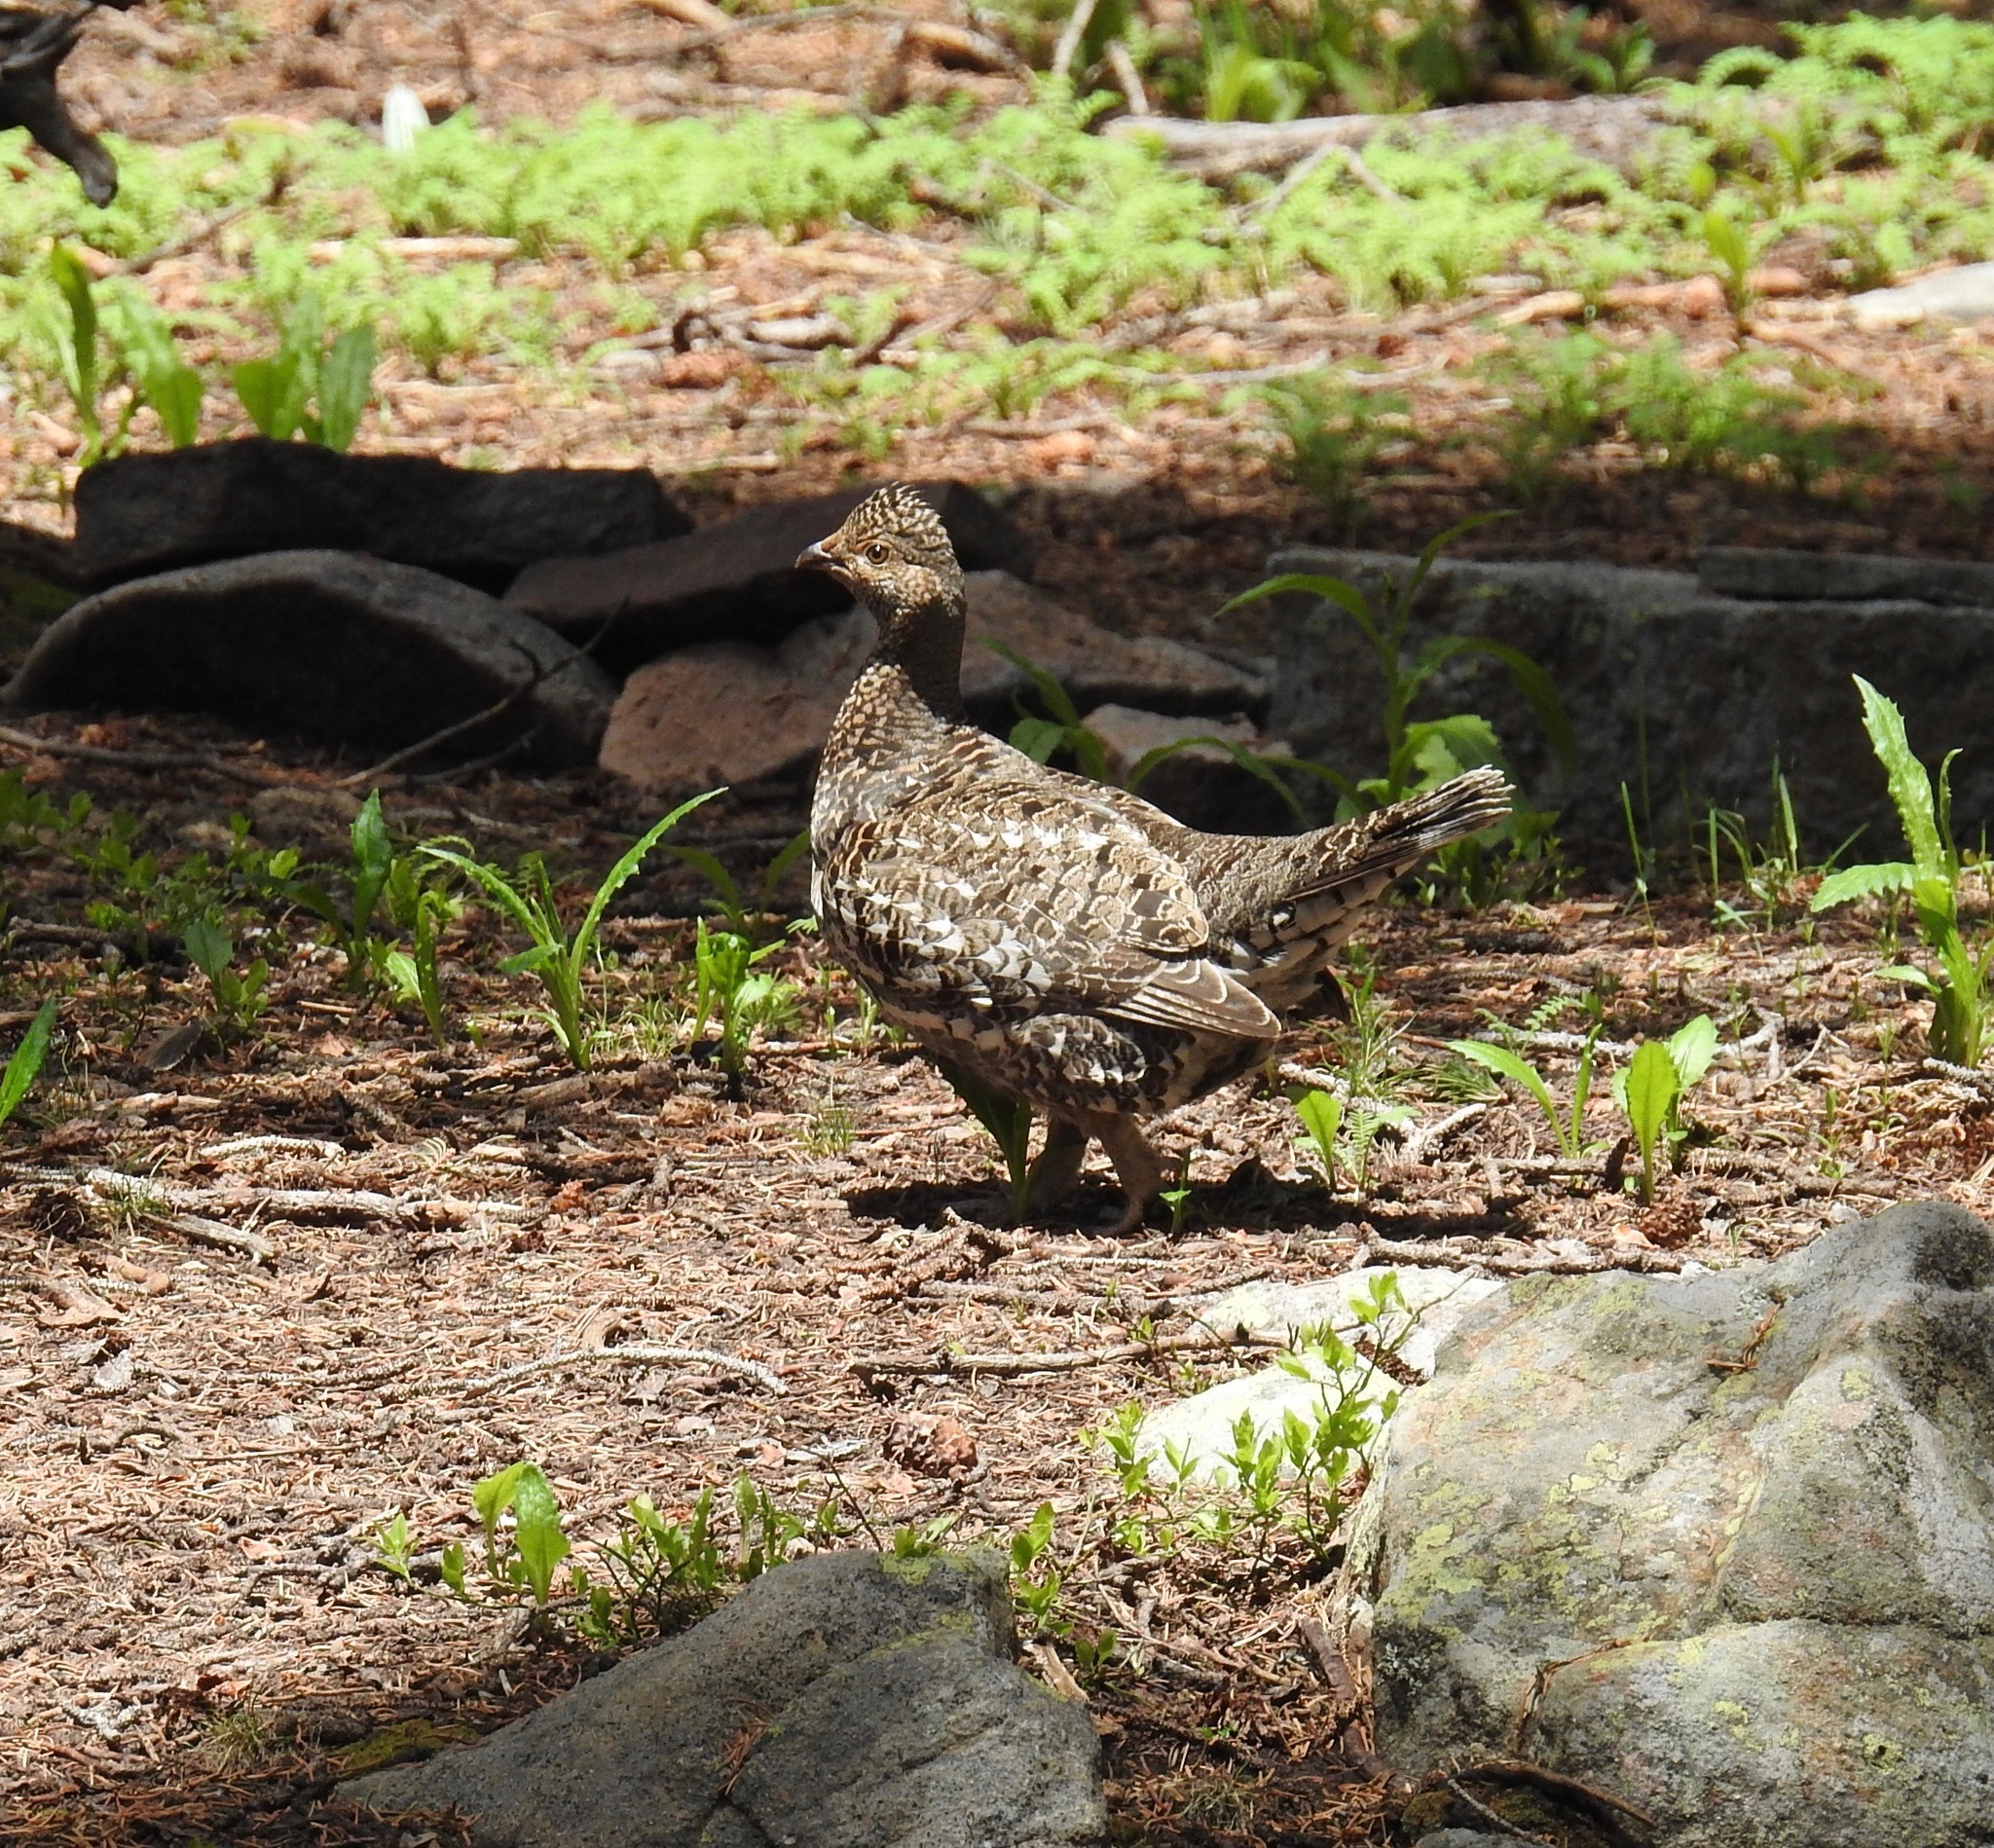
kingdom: Animalia
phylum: Chordata
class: Aves
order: Galliformes
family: Phasianidae
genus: Dendragapus
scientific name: Dendragapus obscurus
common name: Dusky grouse
